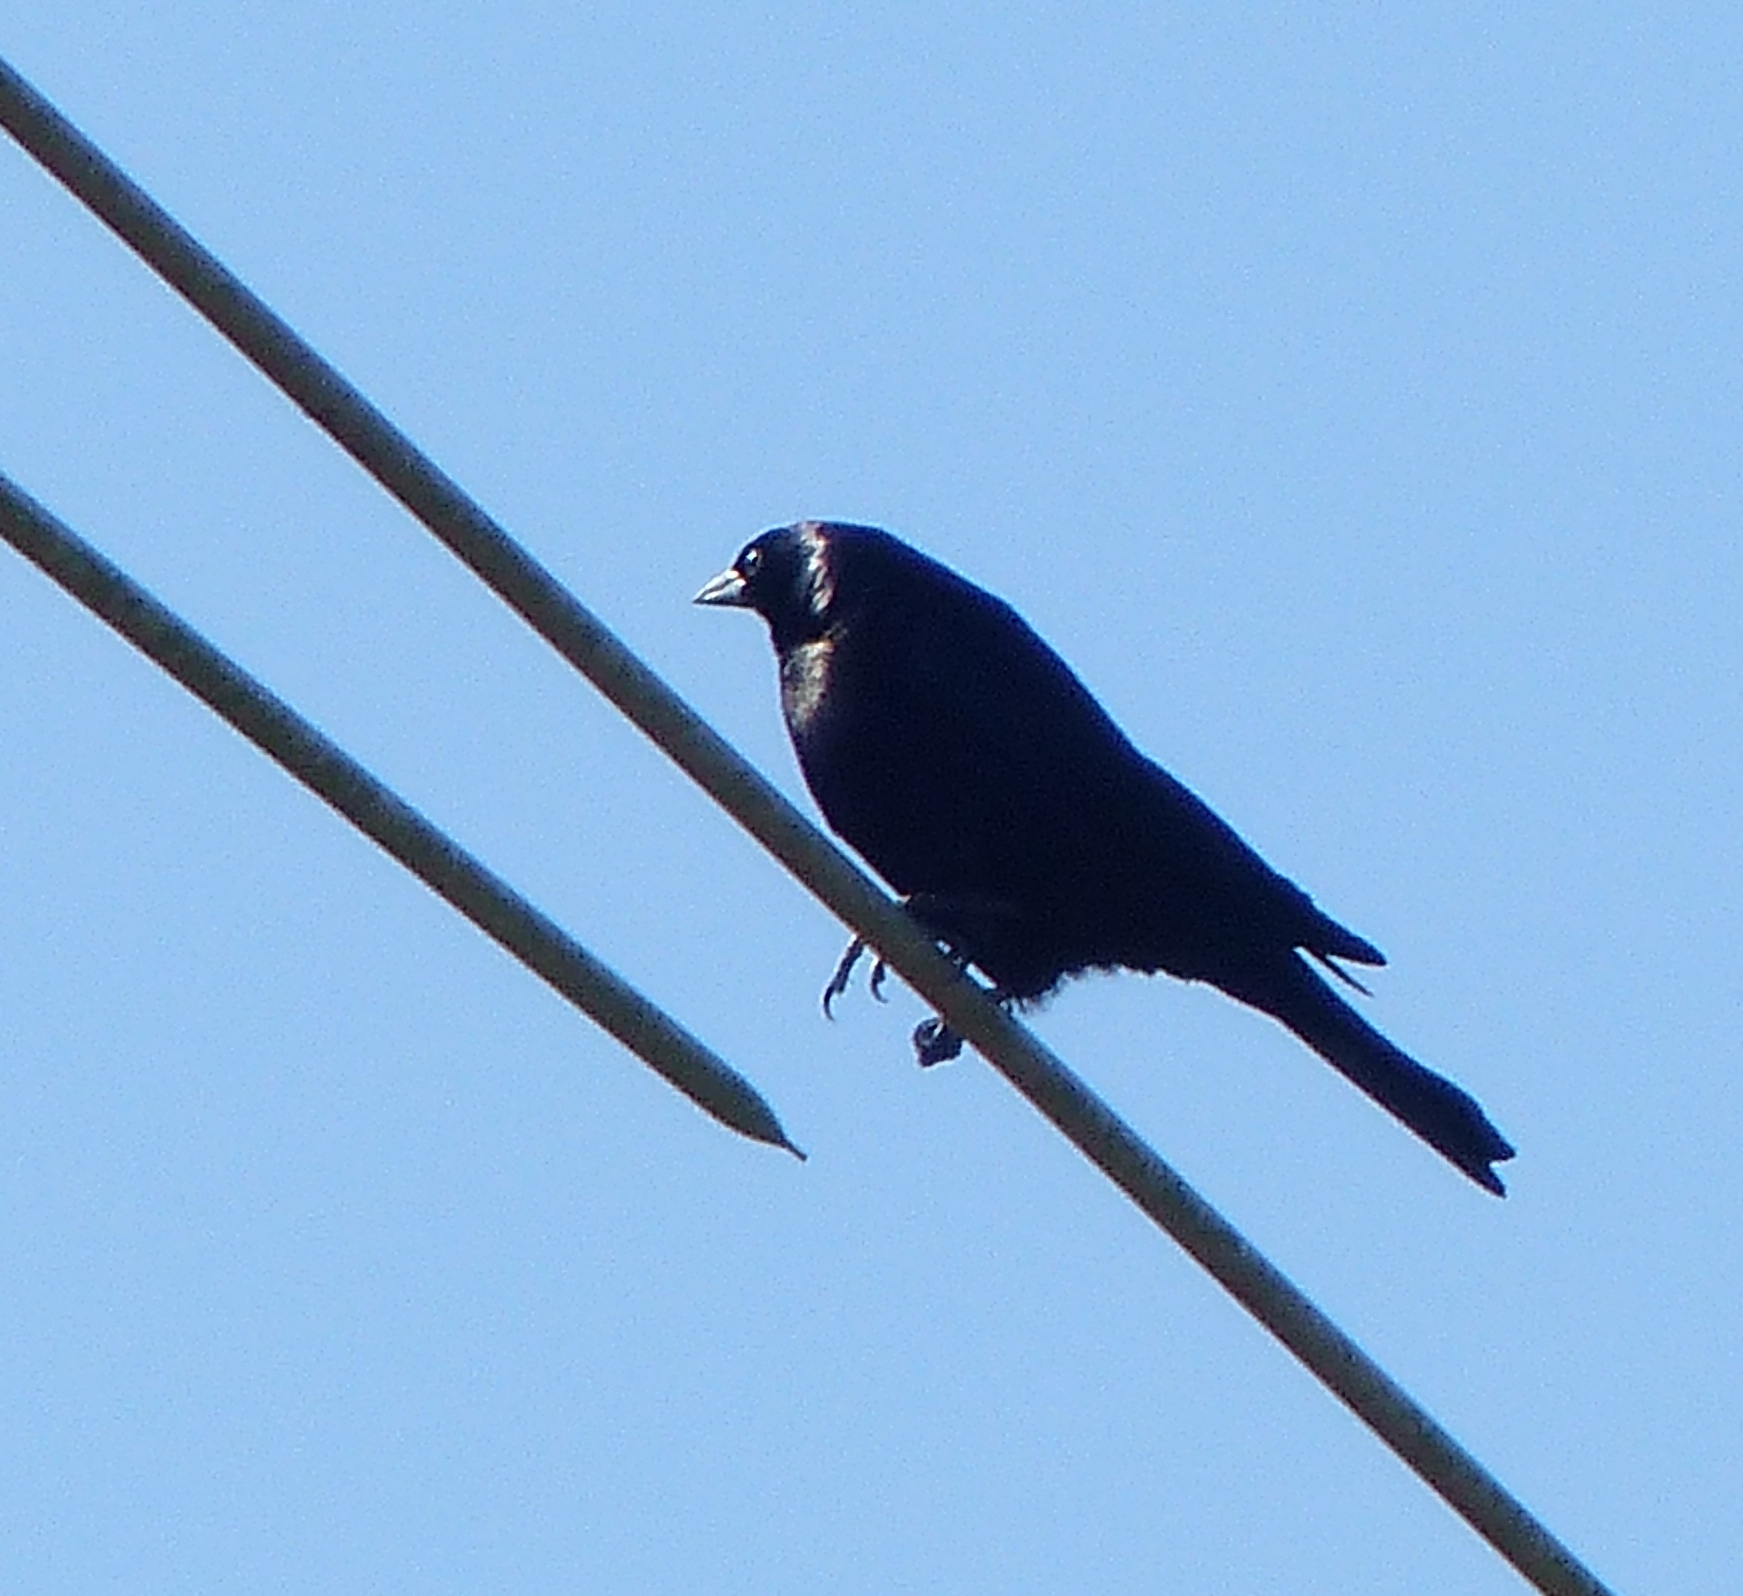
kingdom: Animalia
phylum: Chordata
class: Aves
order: Passeriformes
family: Icteridae
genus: Molothrus
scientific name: Molothrus bonariensis
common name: Shiny cowbird
